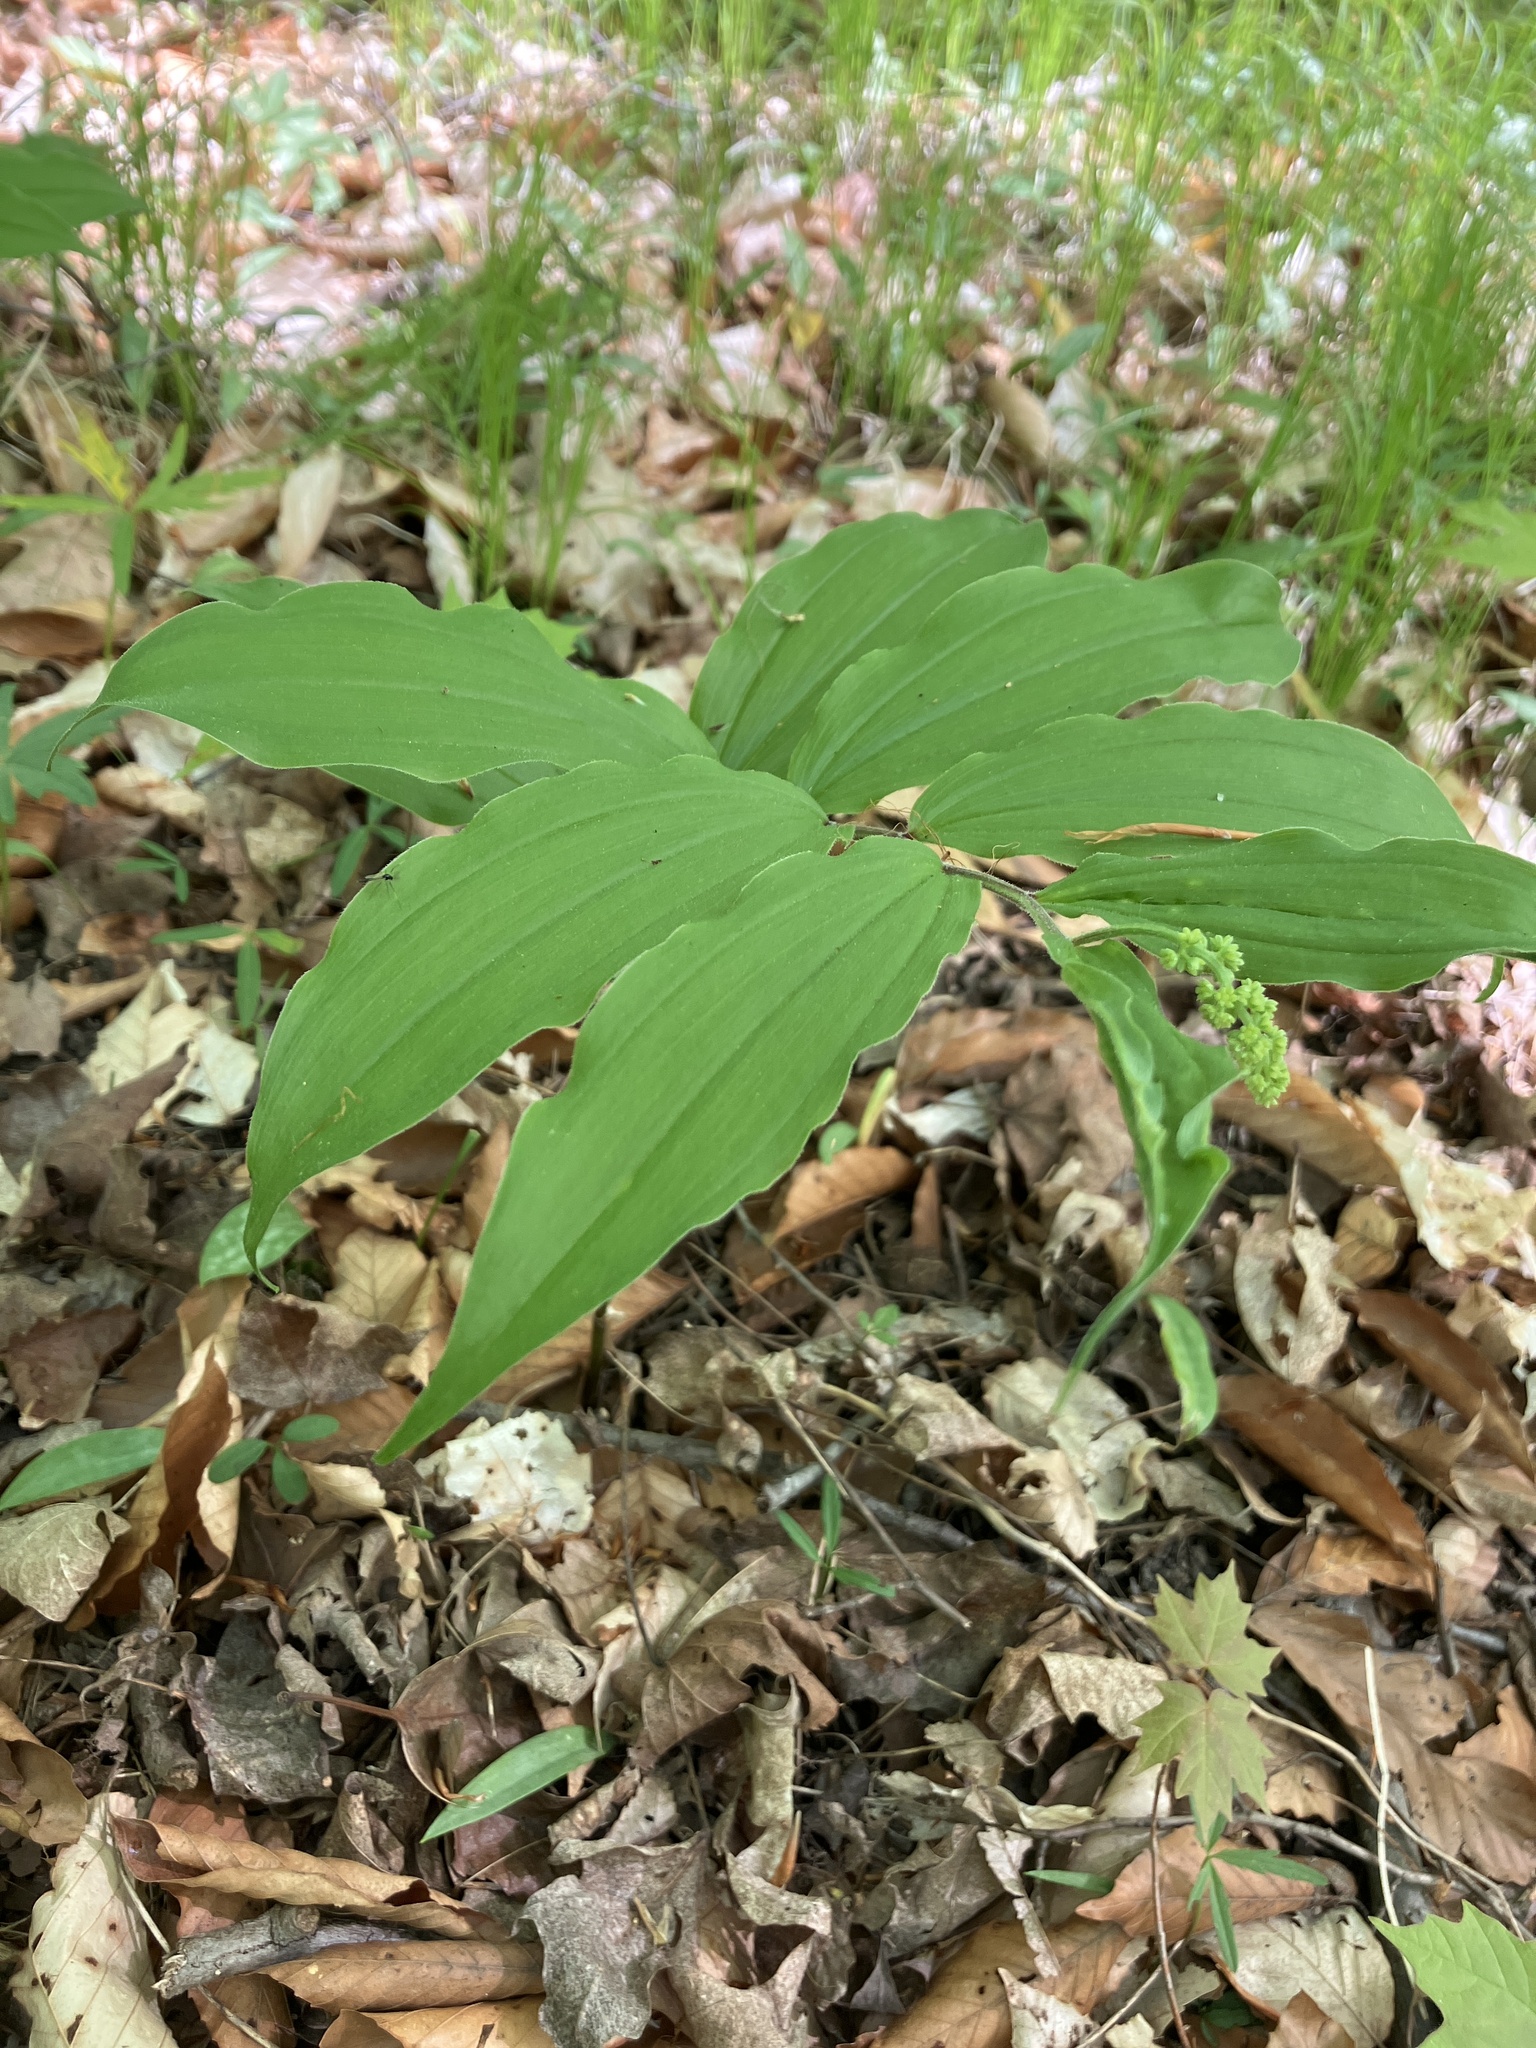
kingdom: Plantae
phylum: Tracheophyta
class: Liliopsida
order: Asparagales
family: Asparagaceae
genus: Maianthemum
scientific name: Maianthemum racemosum
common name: False spikenard
